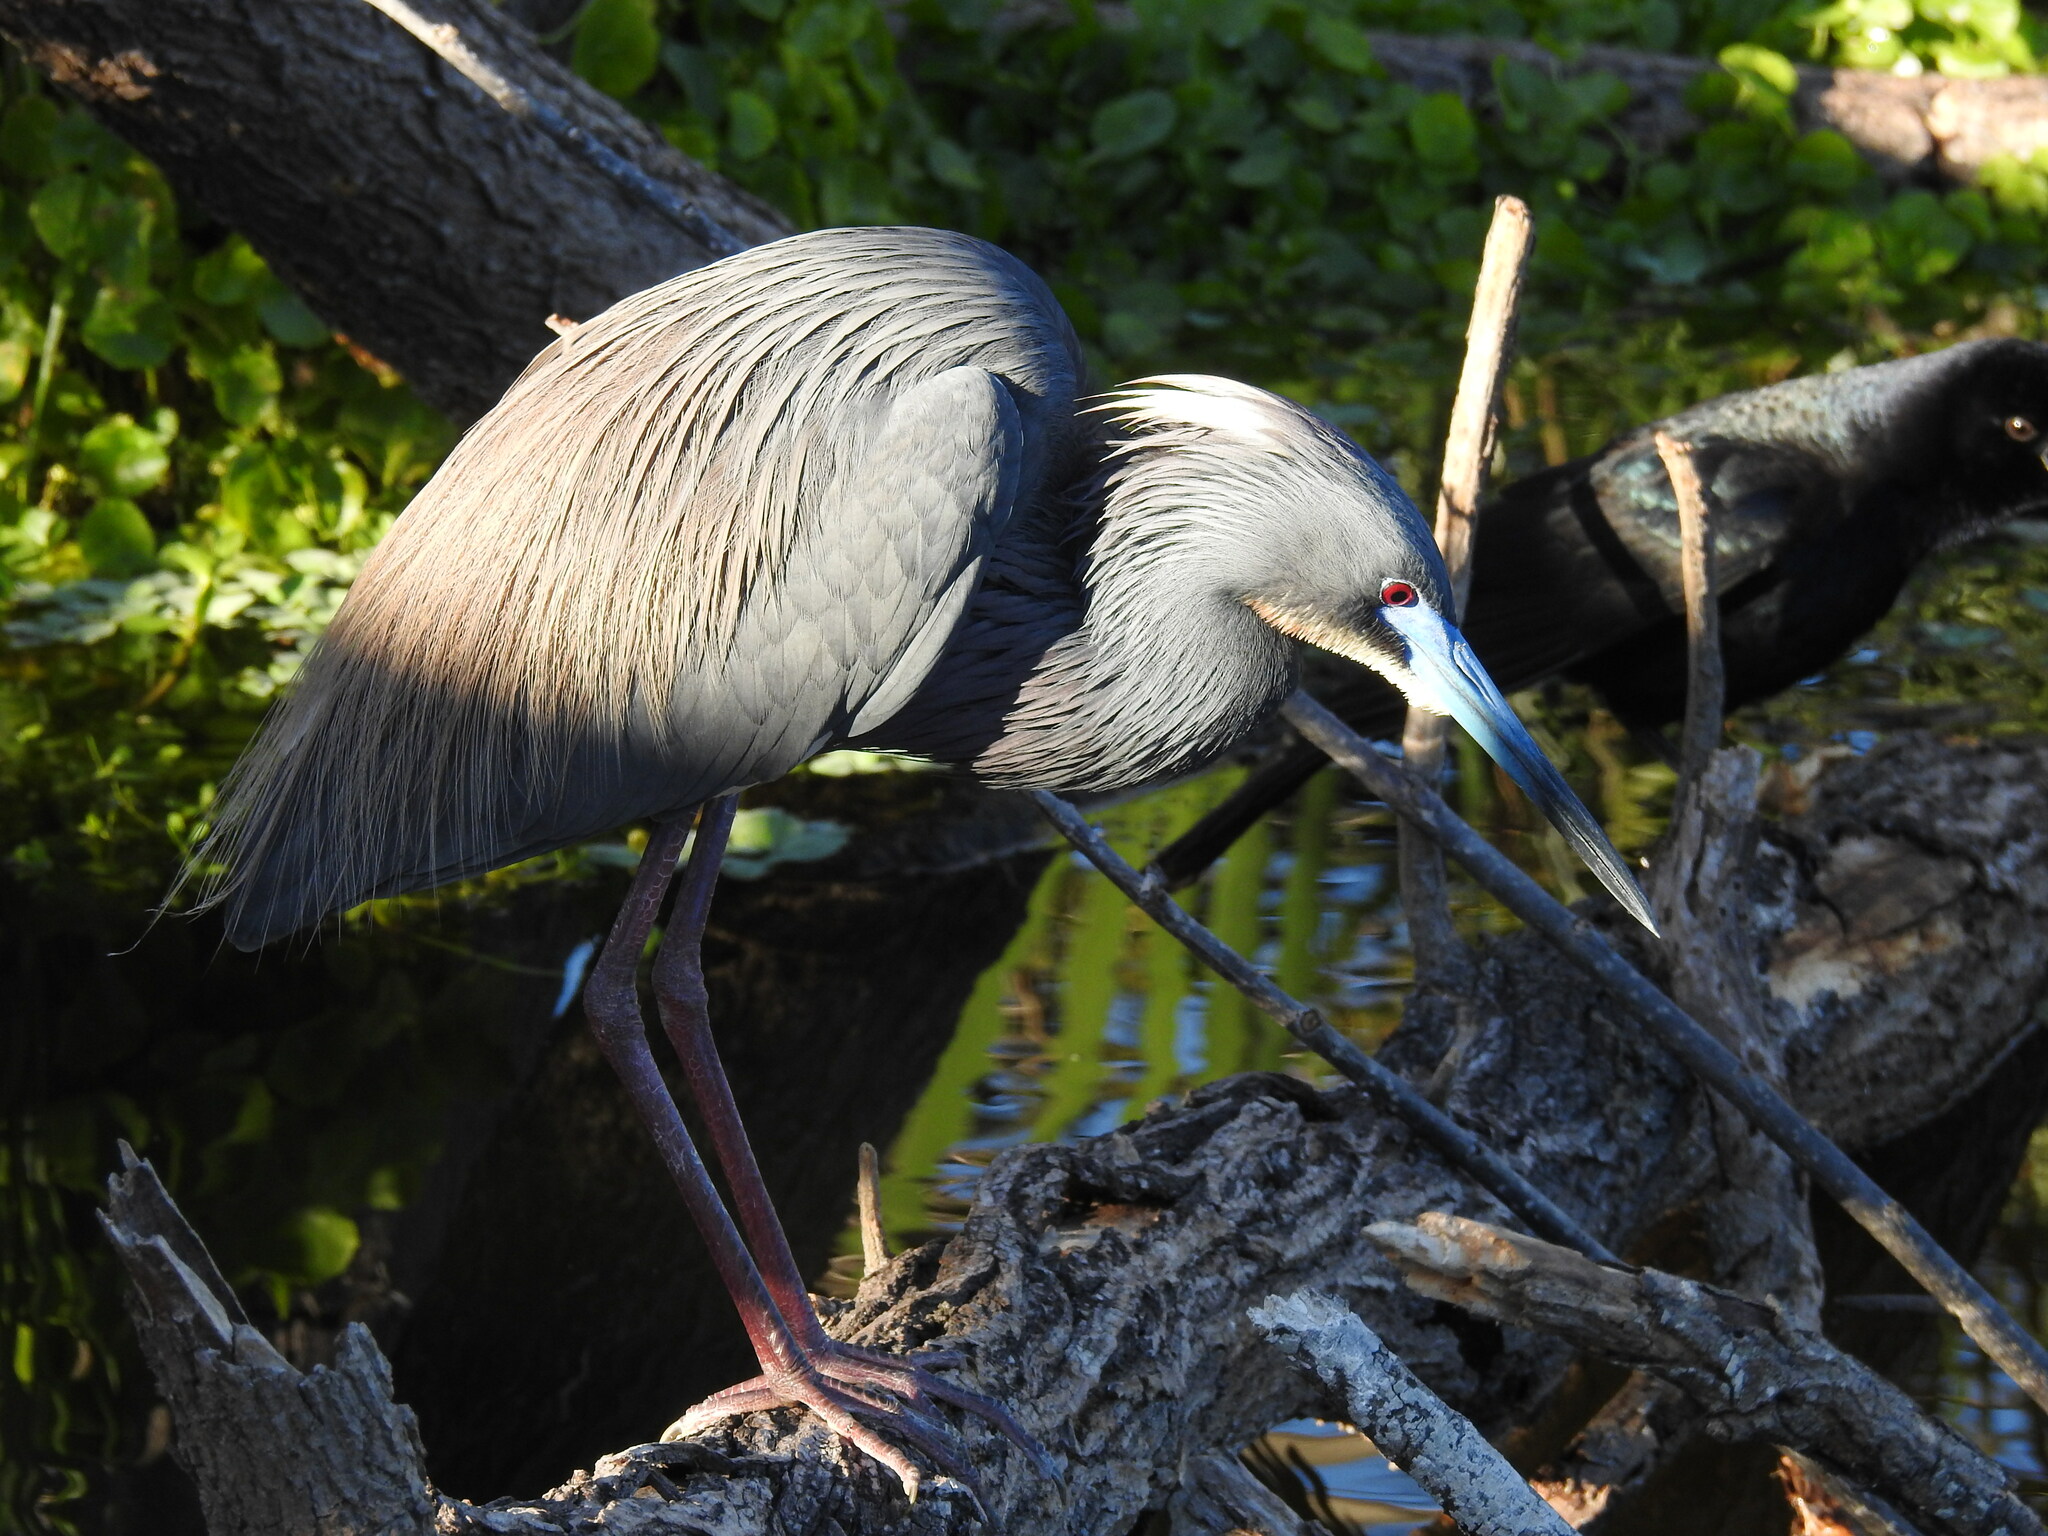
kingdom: Animalia
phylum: Chordata
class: Aves
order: Pelecaniformes
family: Ardeidae
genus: Egretta
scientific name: Egretta tricolor
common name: Tricolored heron
